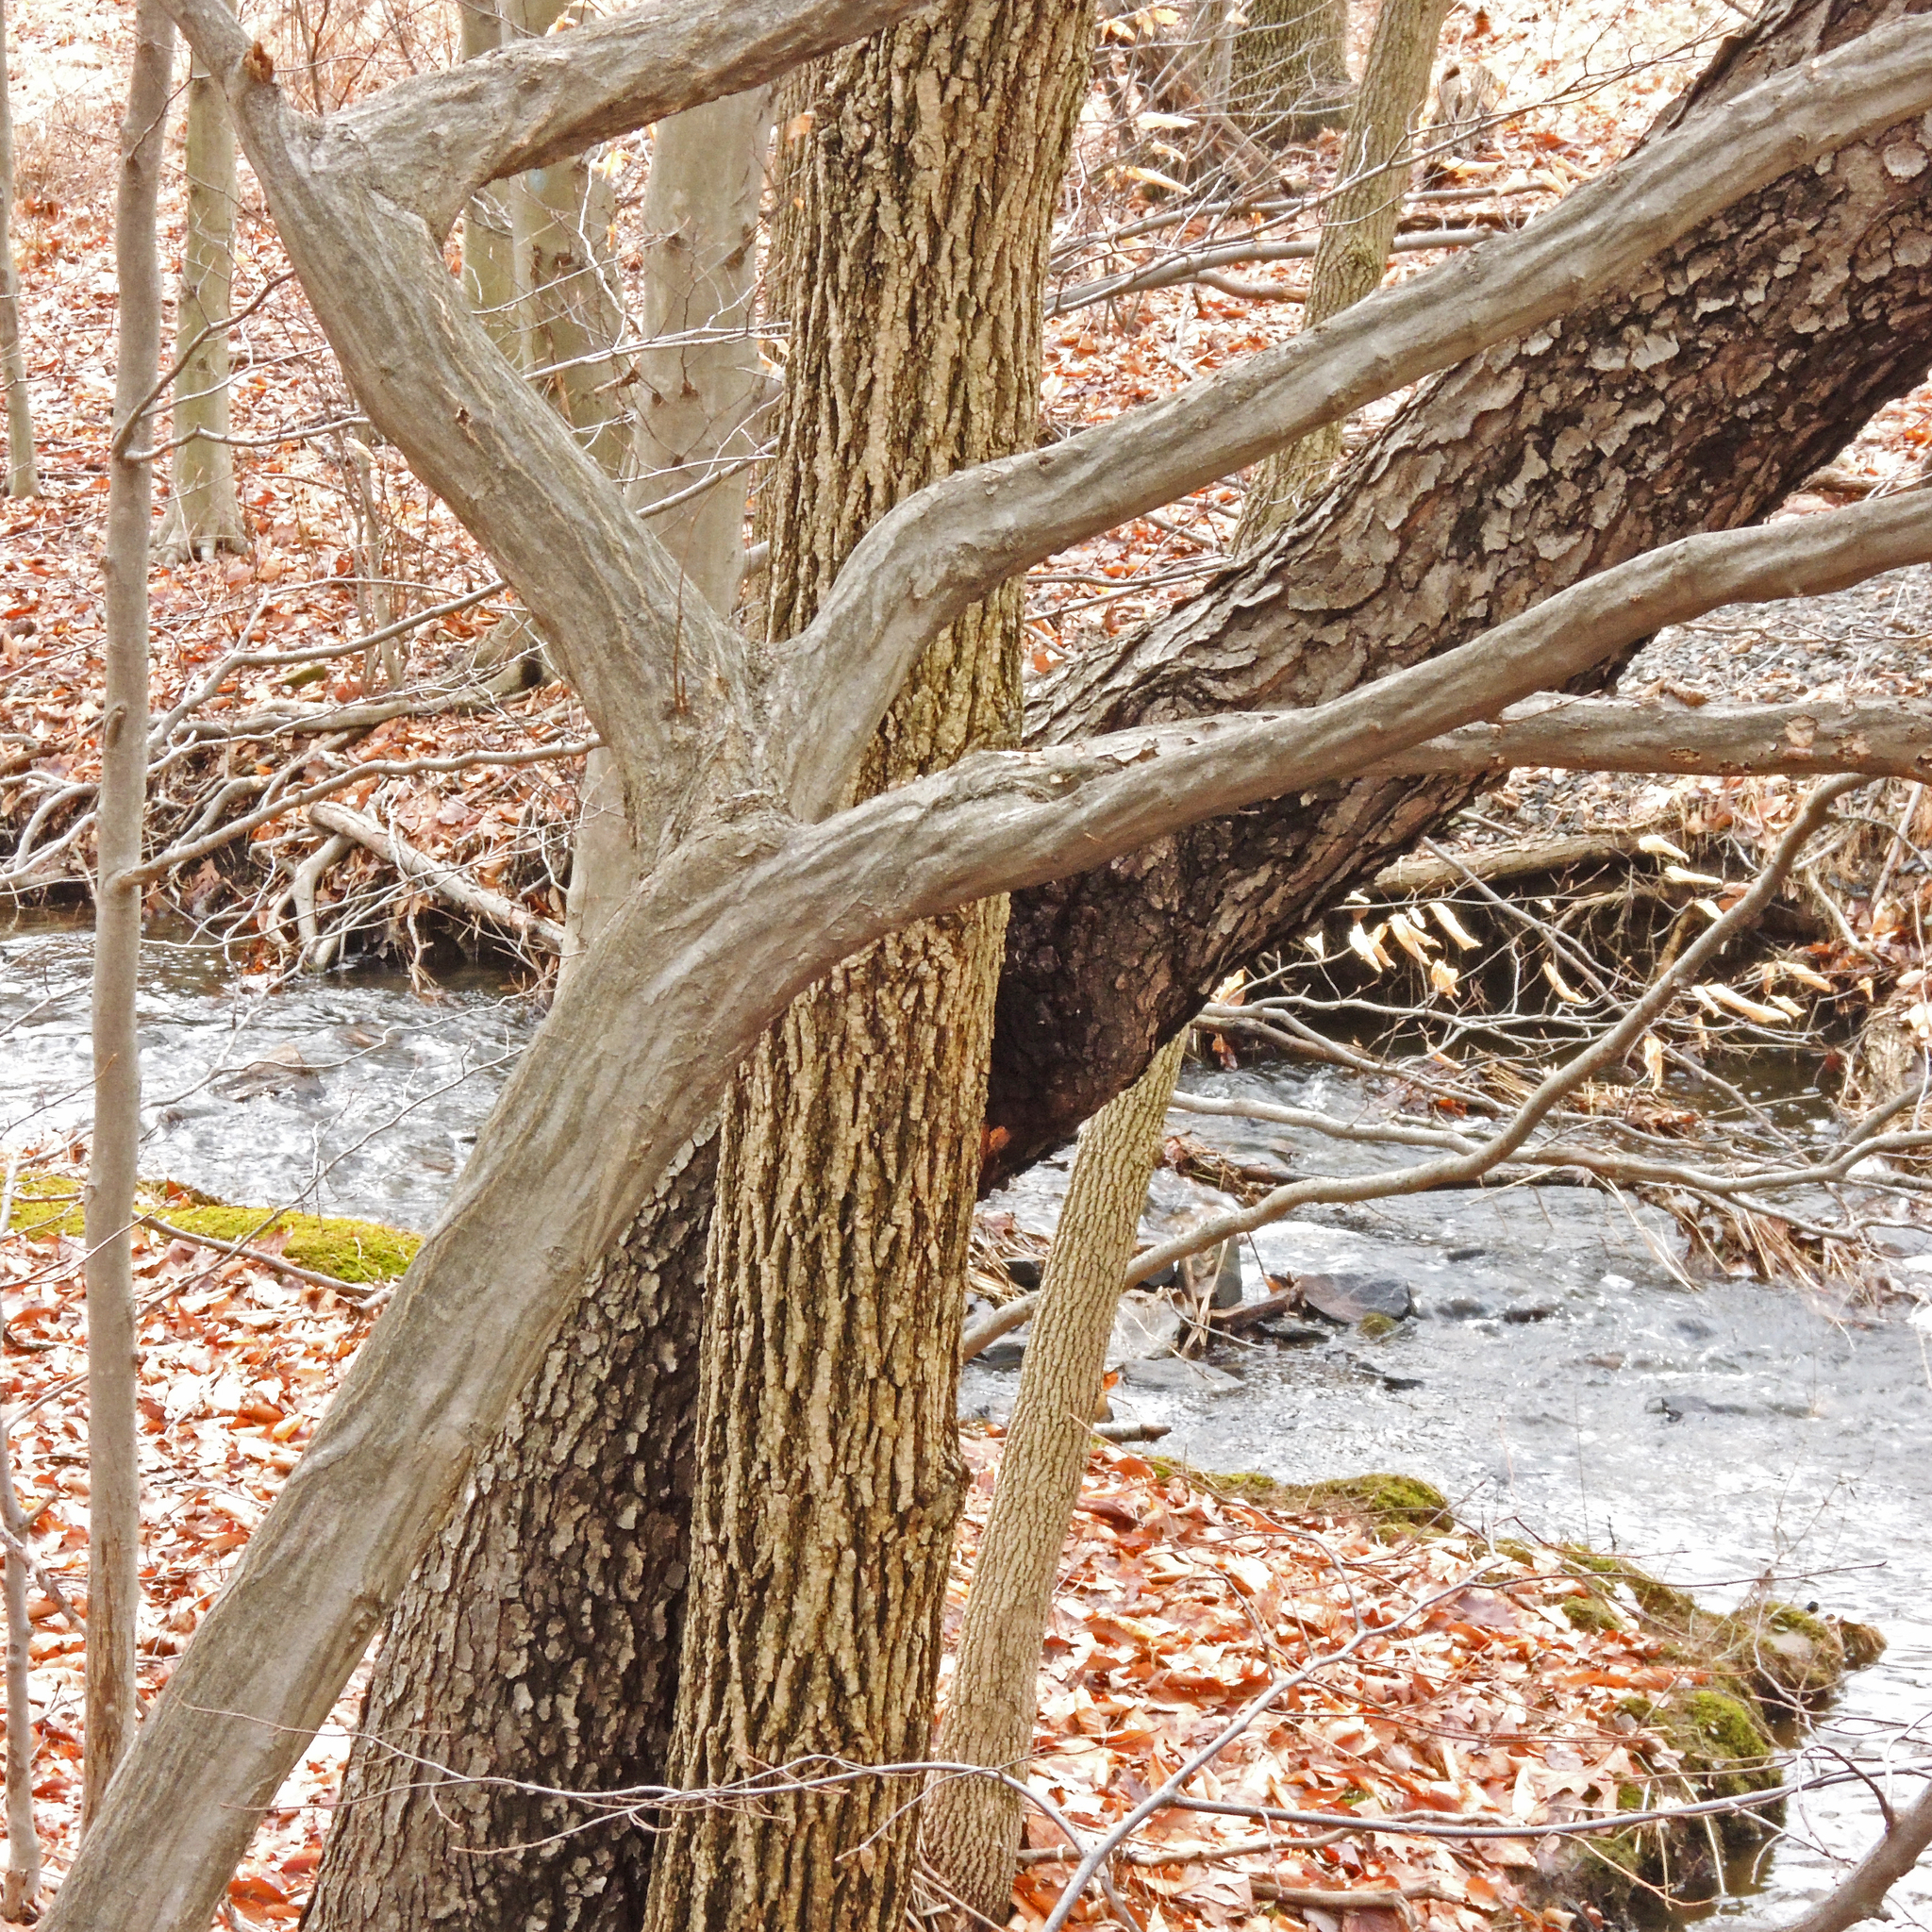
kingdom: Plantae
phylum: Tracheophyta
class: Magnoliopsida
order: Fagales
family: Betulaceae
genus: Carpinus
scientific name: Carpinus caroliniana
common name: American hornbeam
